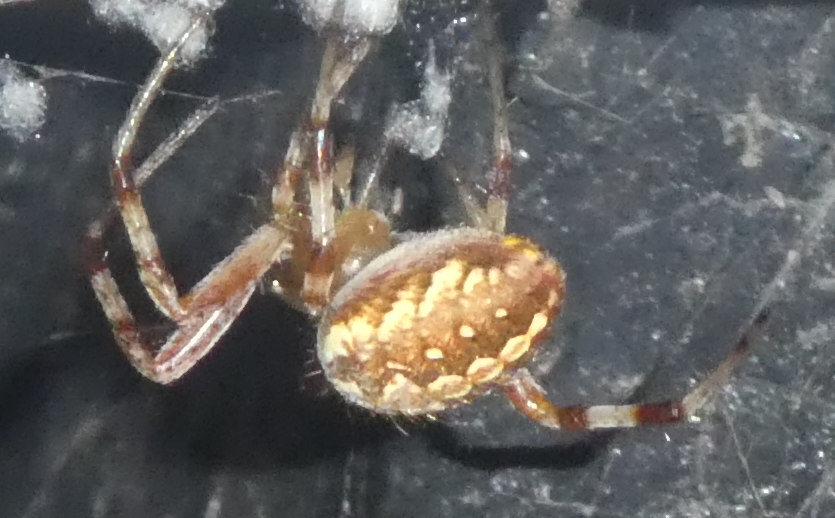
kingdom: Animalia
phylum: Arthropoda
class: Arachnida
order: Araneae
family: Araneidae
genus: Neoscona
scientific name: Neoscona oaxacensis
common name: Orb weavers
